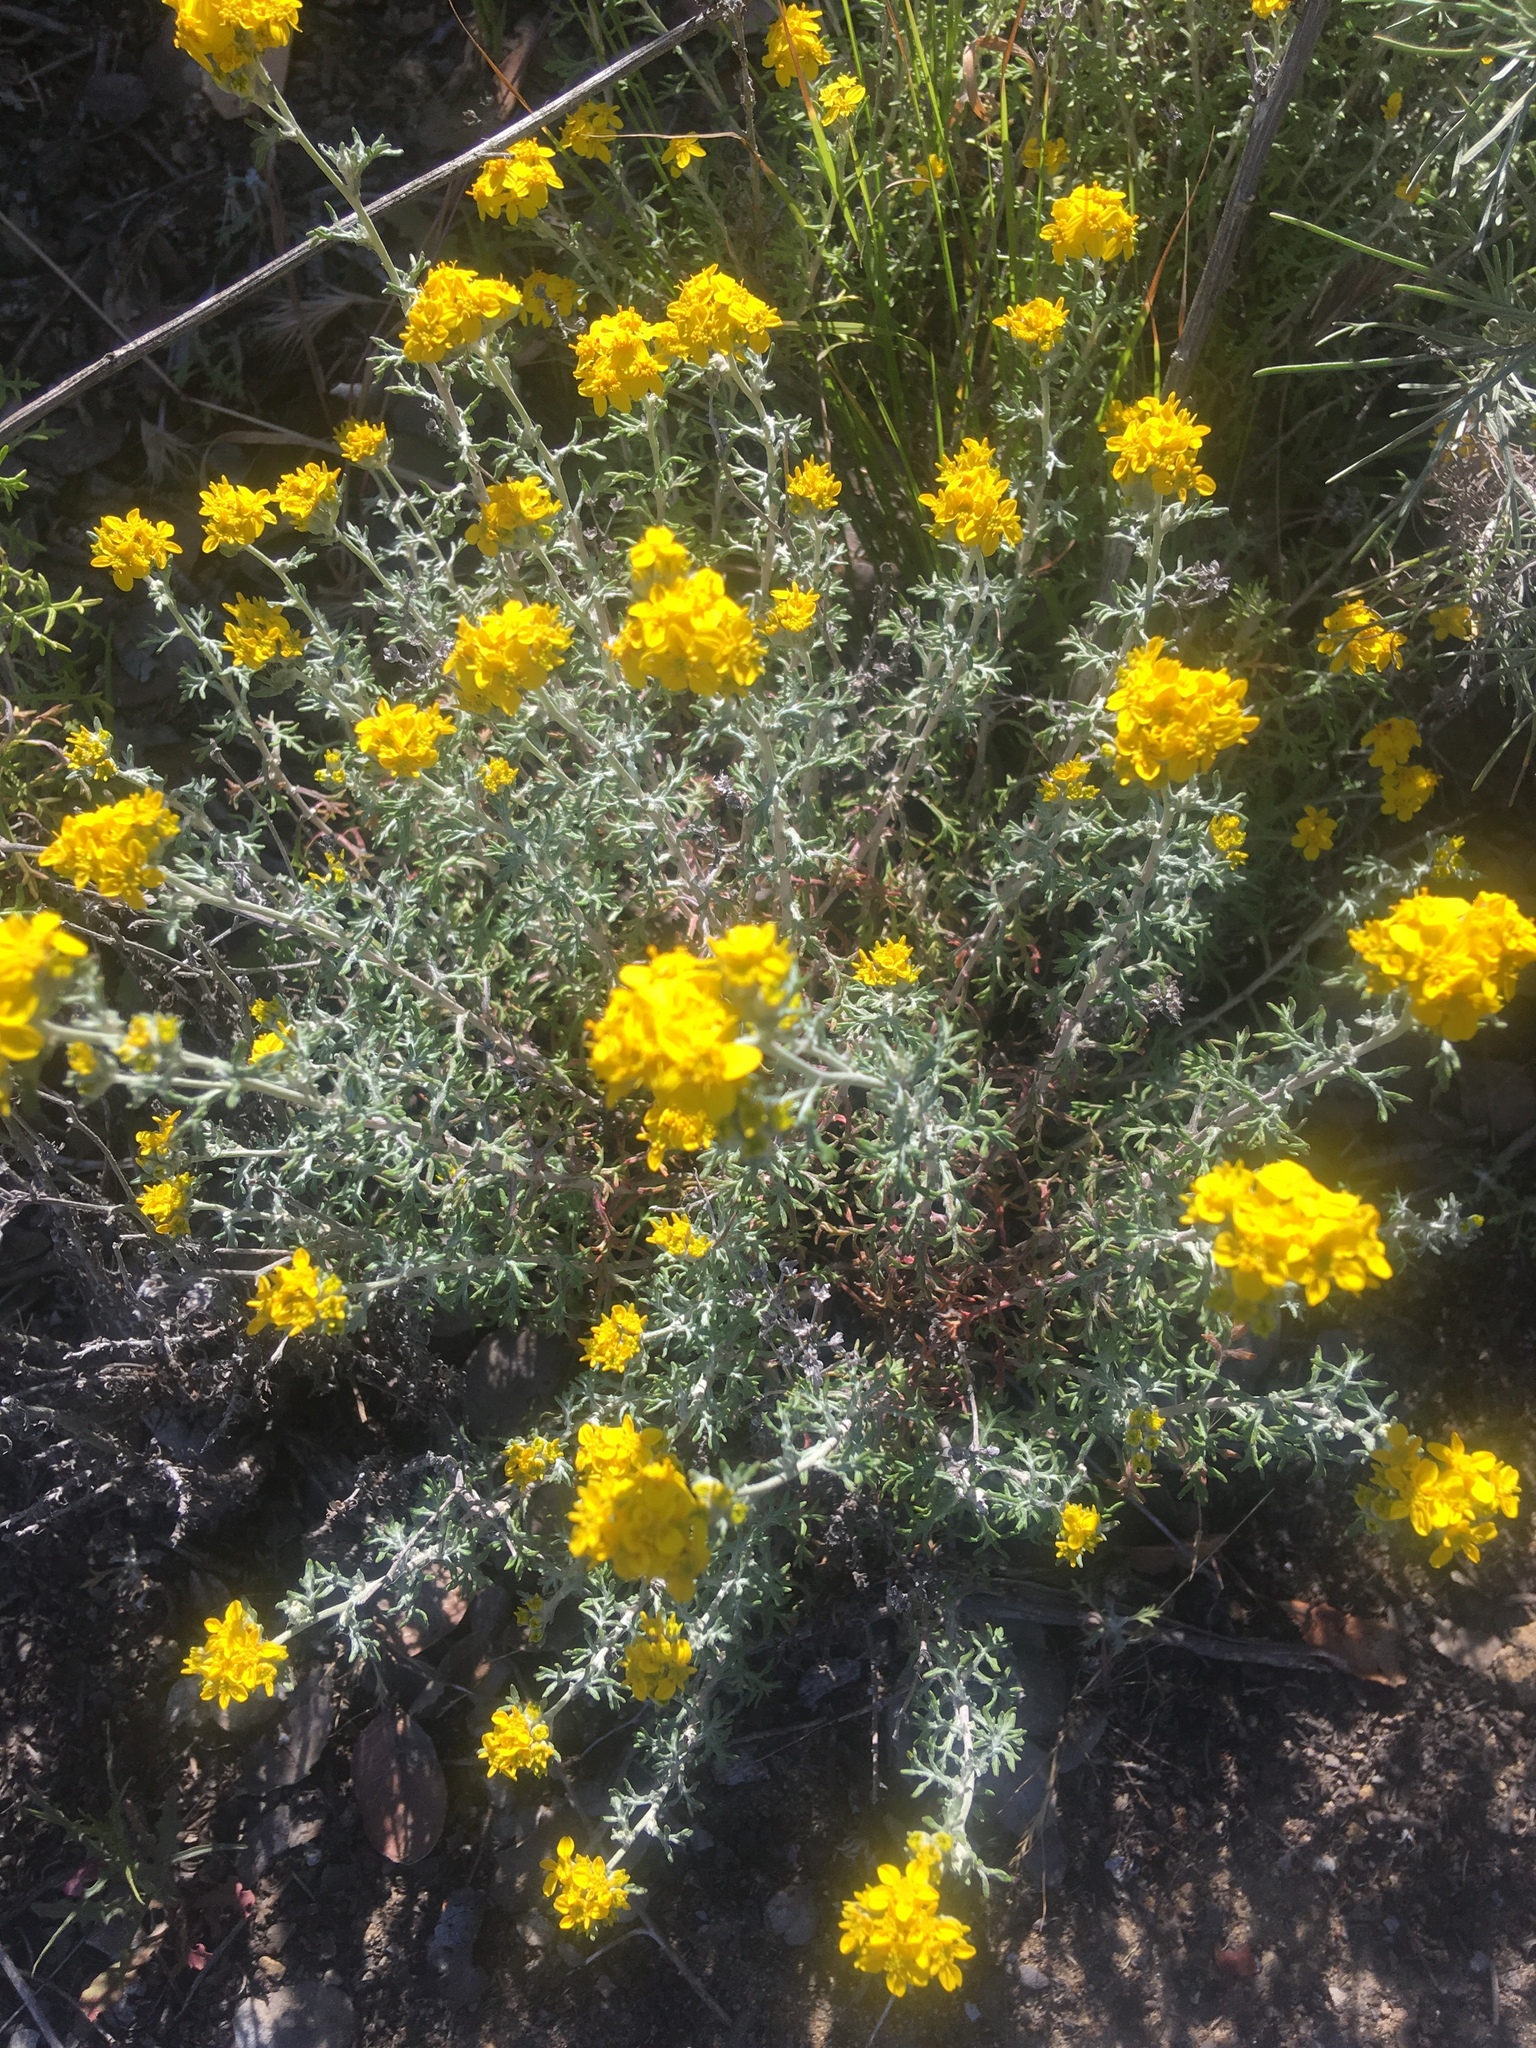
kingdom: Plantae
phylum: Tracheophyta
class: Magnoliopsida
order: Asterales
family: Asteraceae
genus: Eriophyllum
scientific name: Eriophyllum confertiflorum
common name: Golden-yarrow
